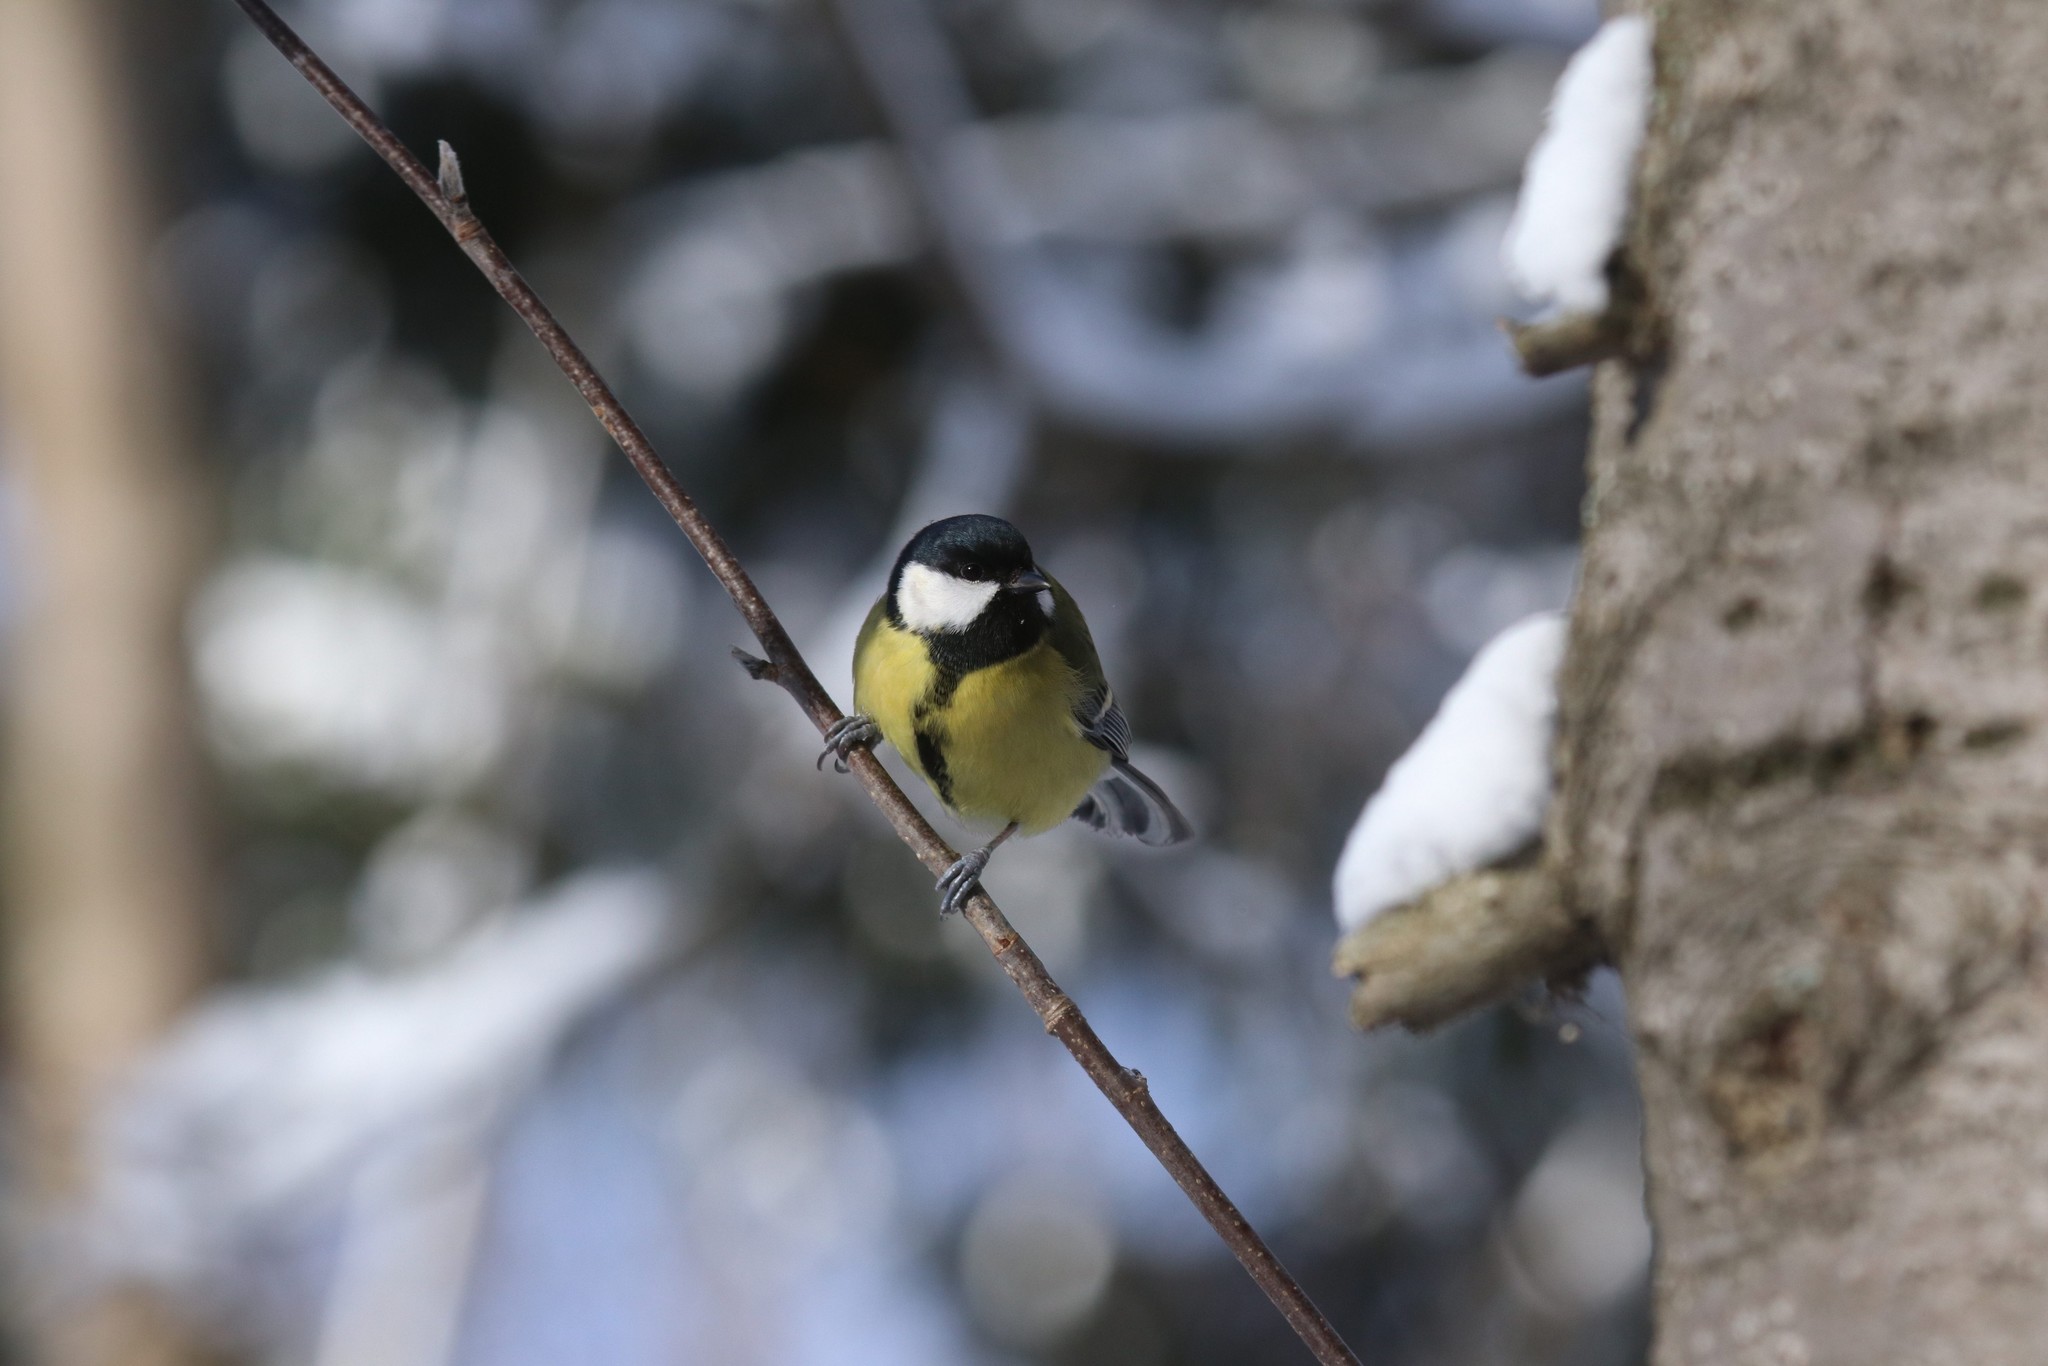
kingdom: Animalia
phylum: Chordata
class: Aves
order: Passeriformes
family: Paridae
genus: Parus
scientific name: Parus major
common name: Great tit
